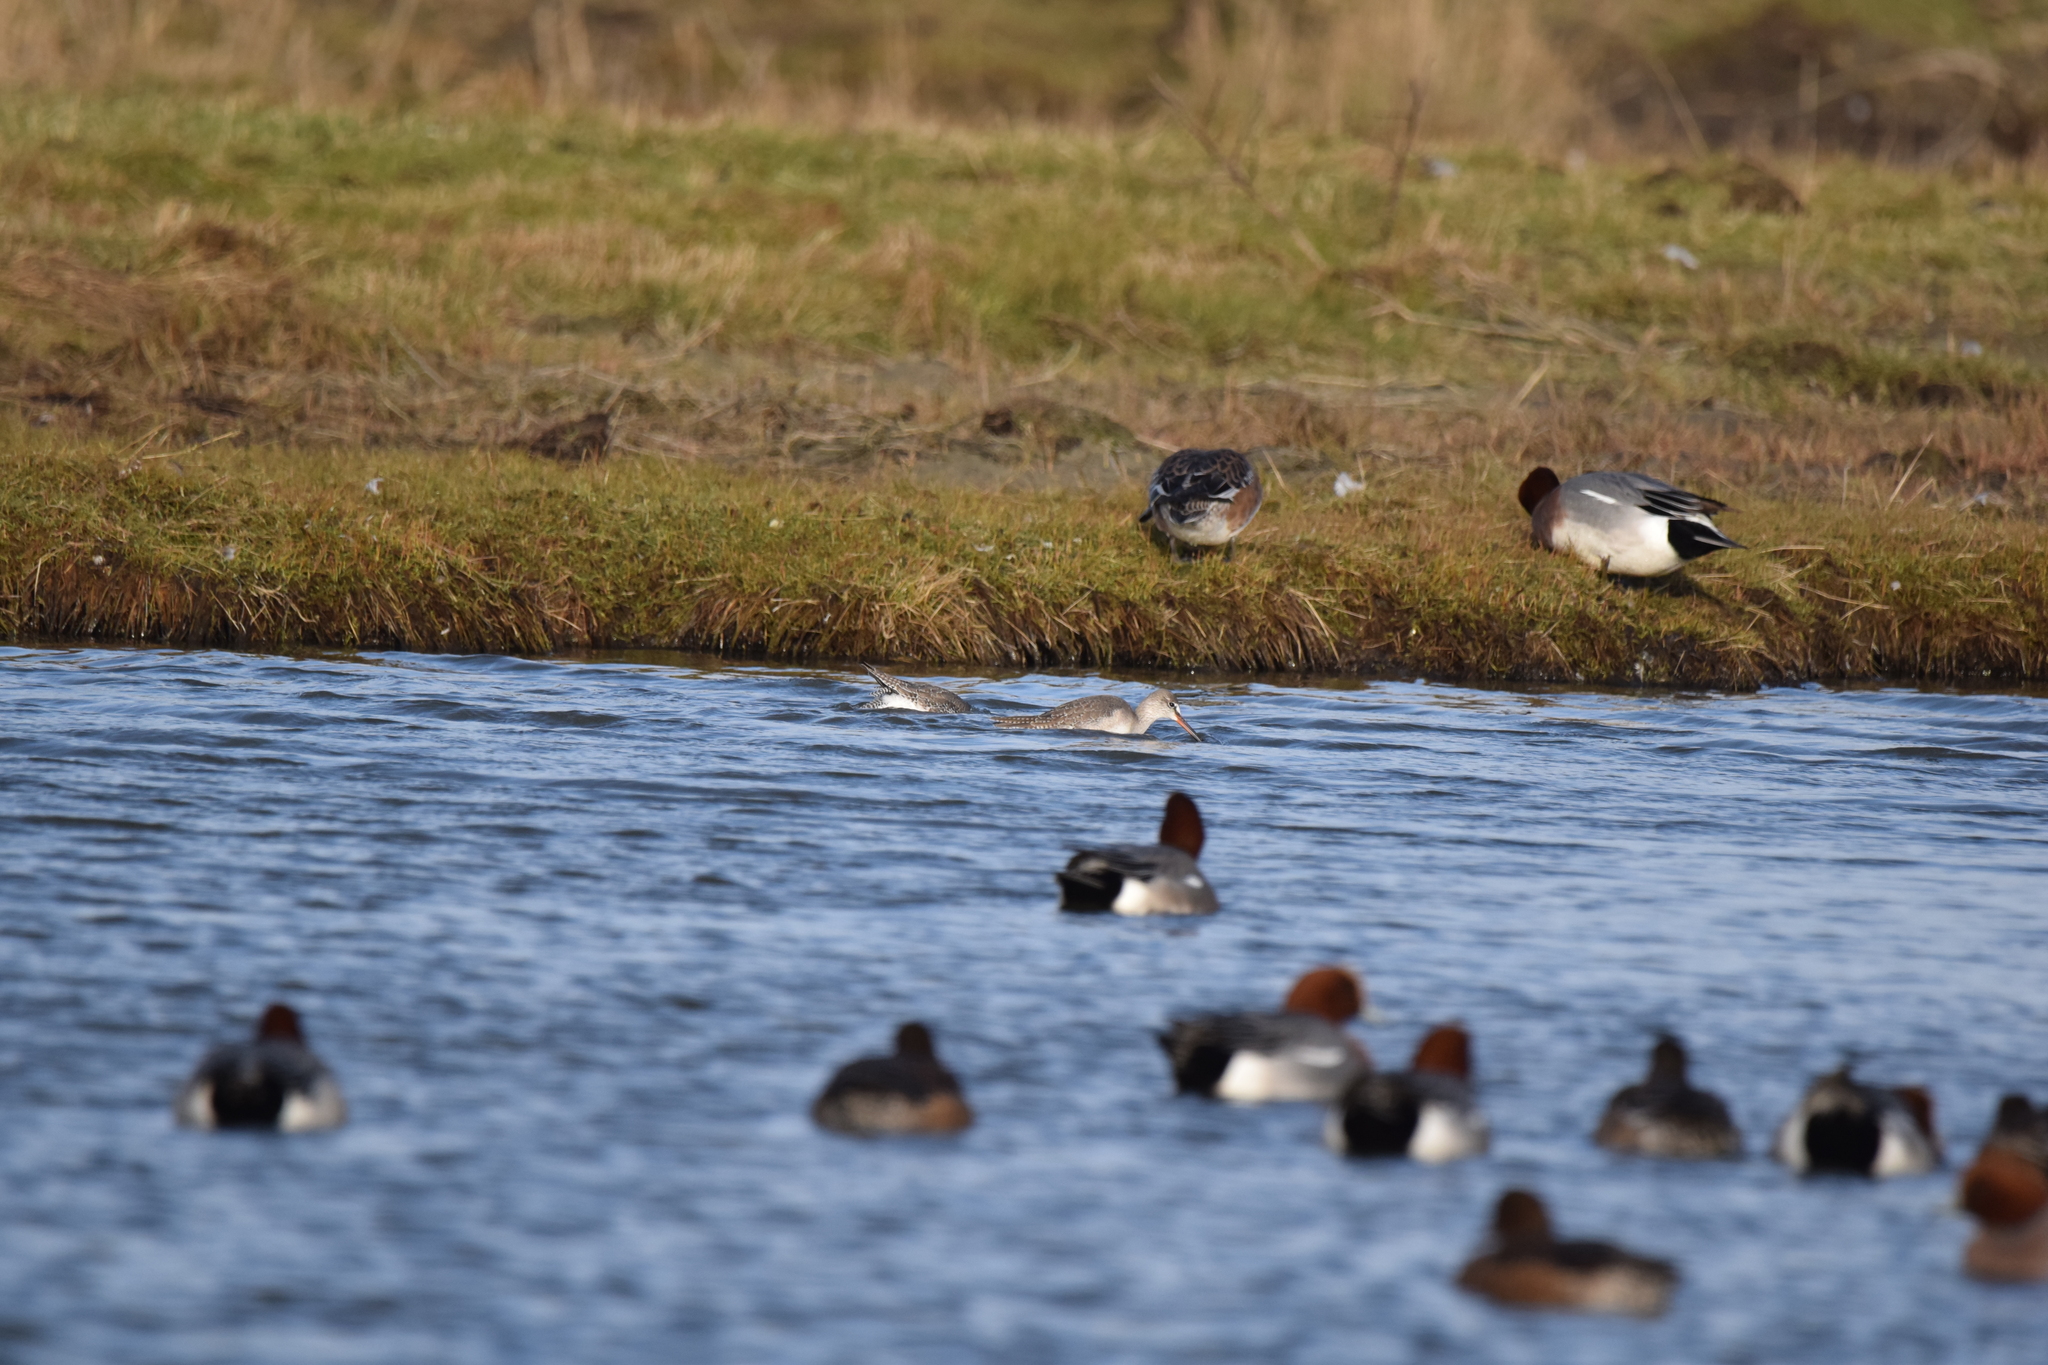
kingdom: Animalia
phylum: Chordata
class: Aves
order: Charadriiformes
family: Scolopacidae
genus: Tringa
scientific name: Tringa erythropus
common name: Spotted redshank
